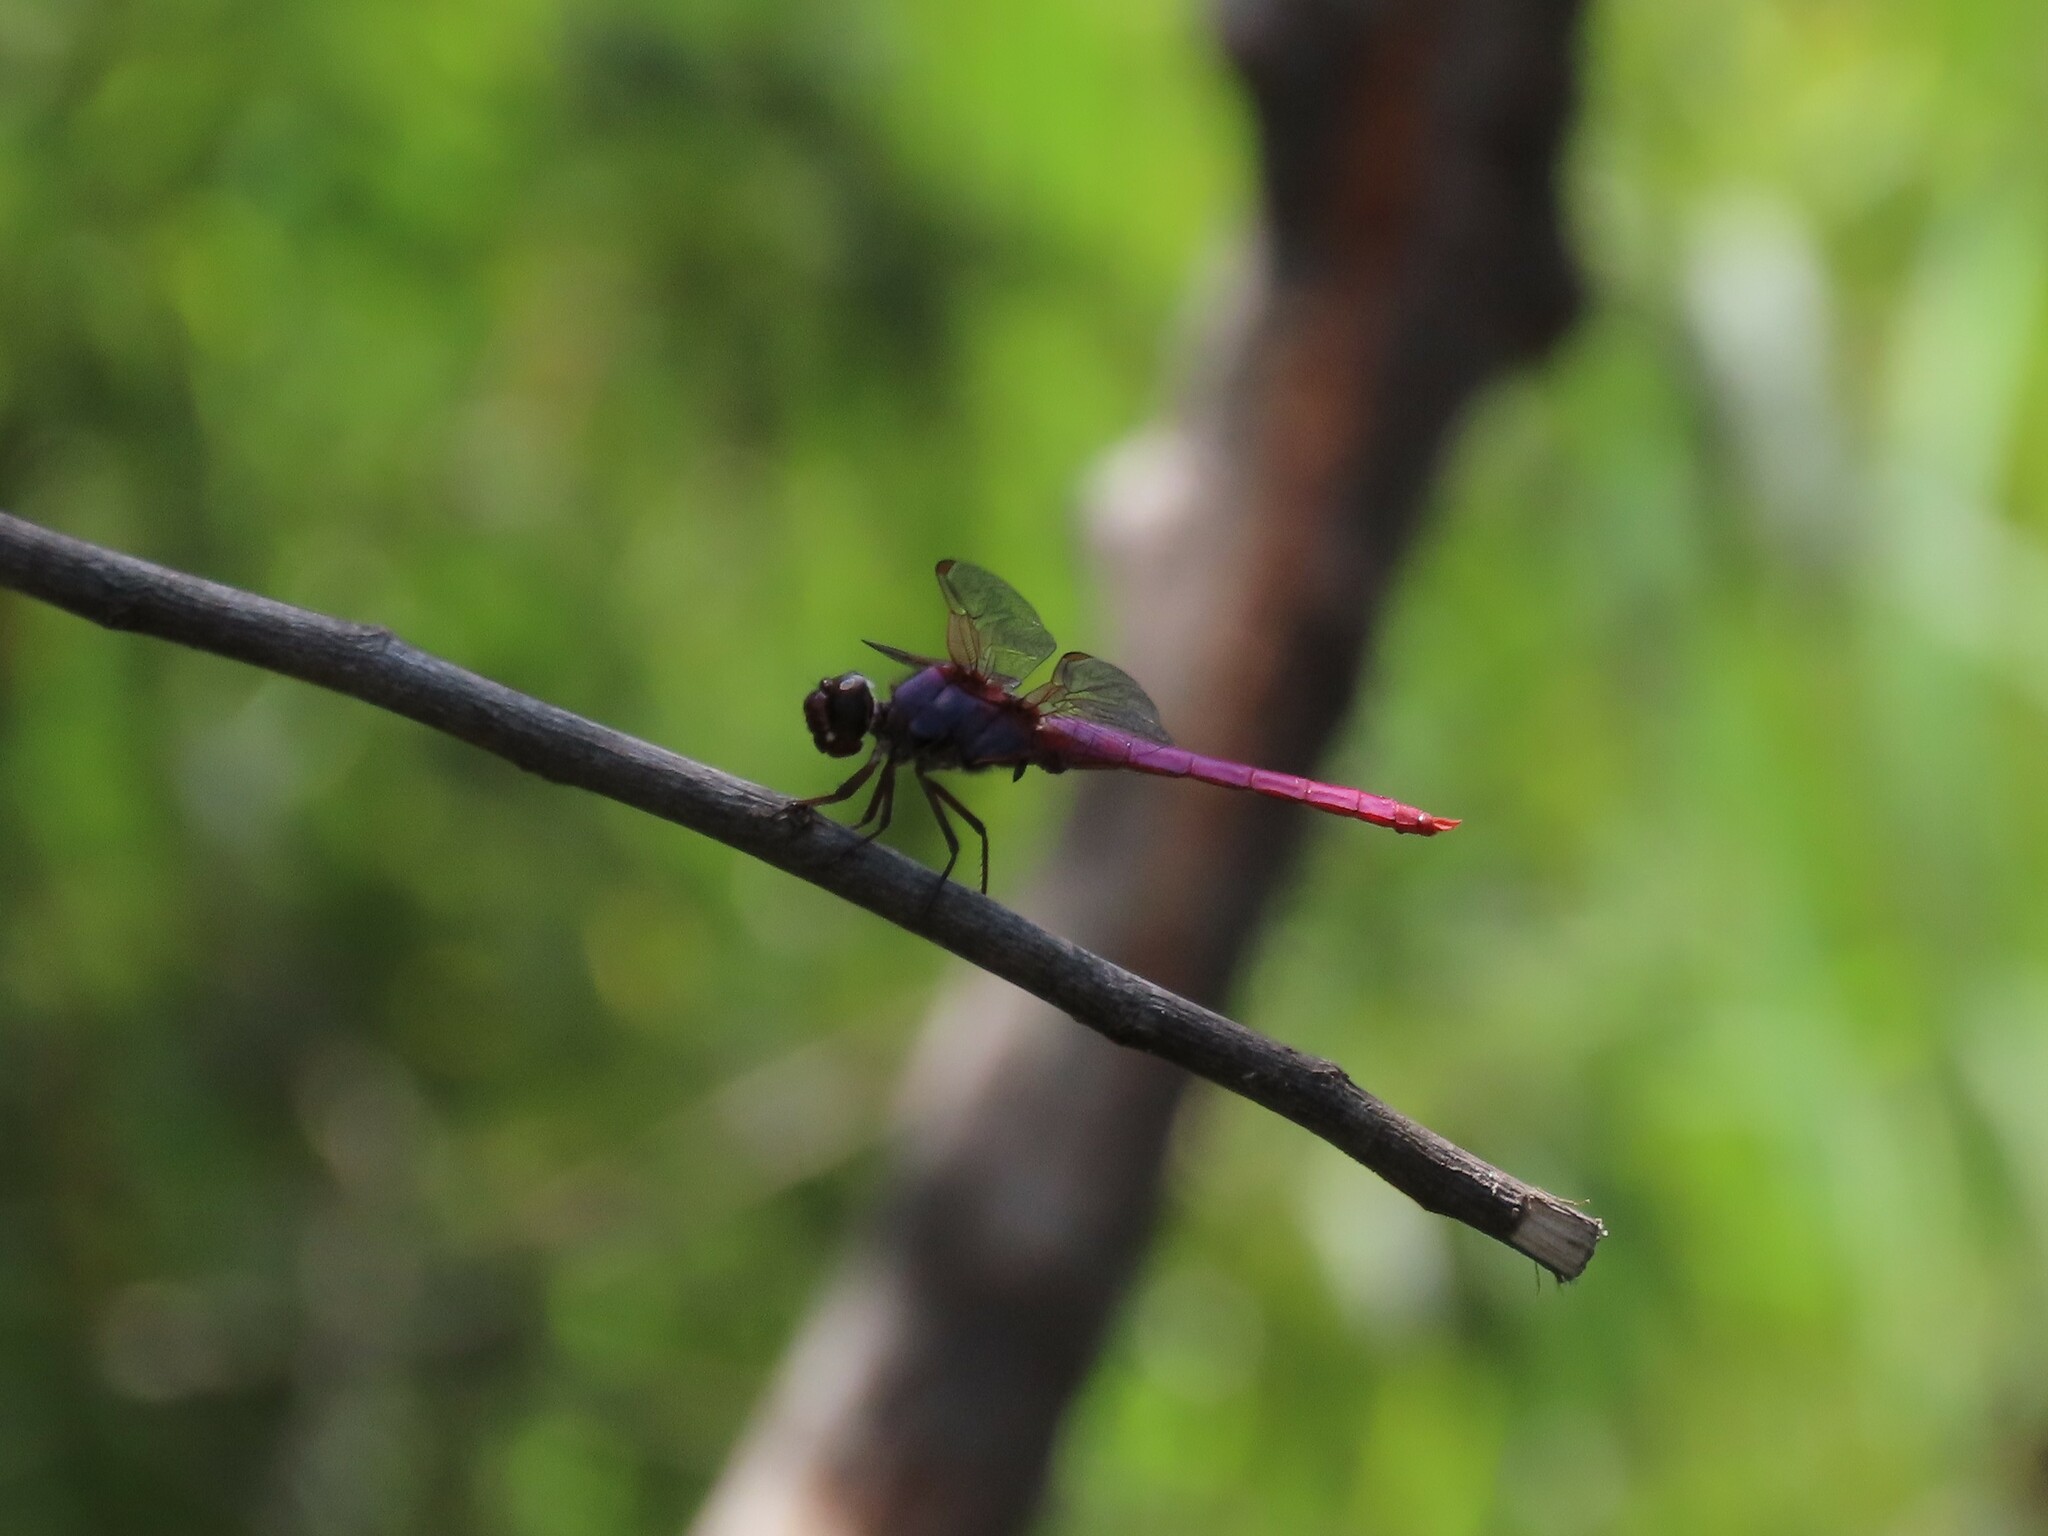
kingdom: Animalia
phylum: Arthropoda
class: Insecta
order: Odonata
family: Libellulidae
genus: Orthemis
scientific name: Orthemis ferruginea
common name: Roseate skimmer
